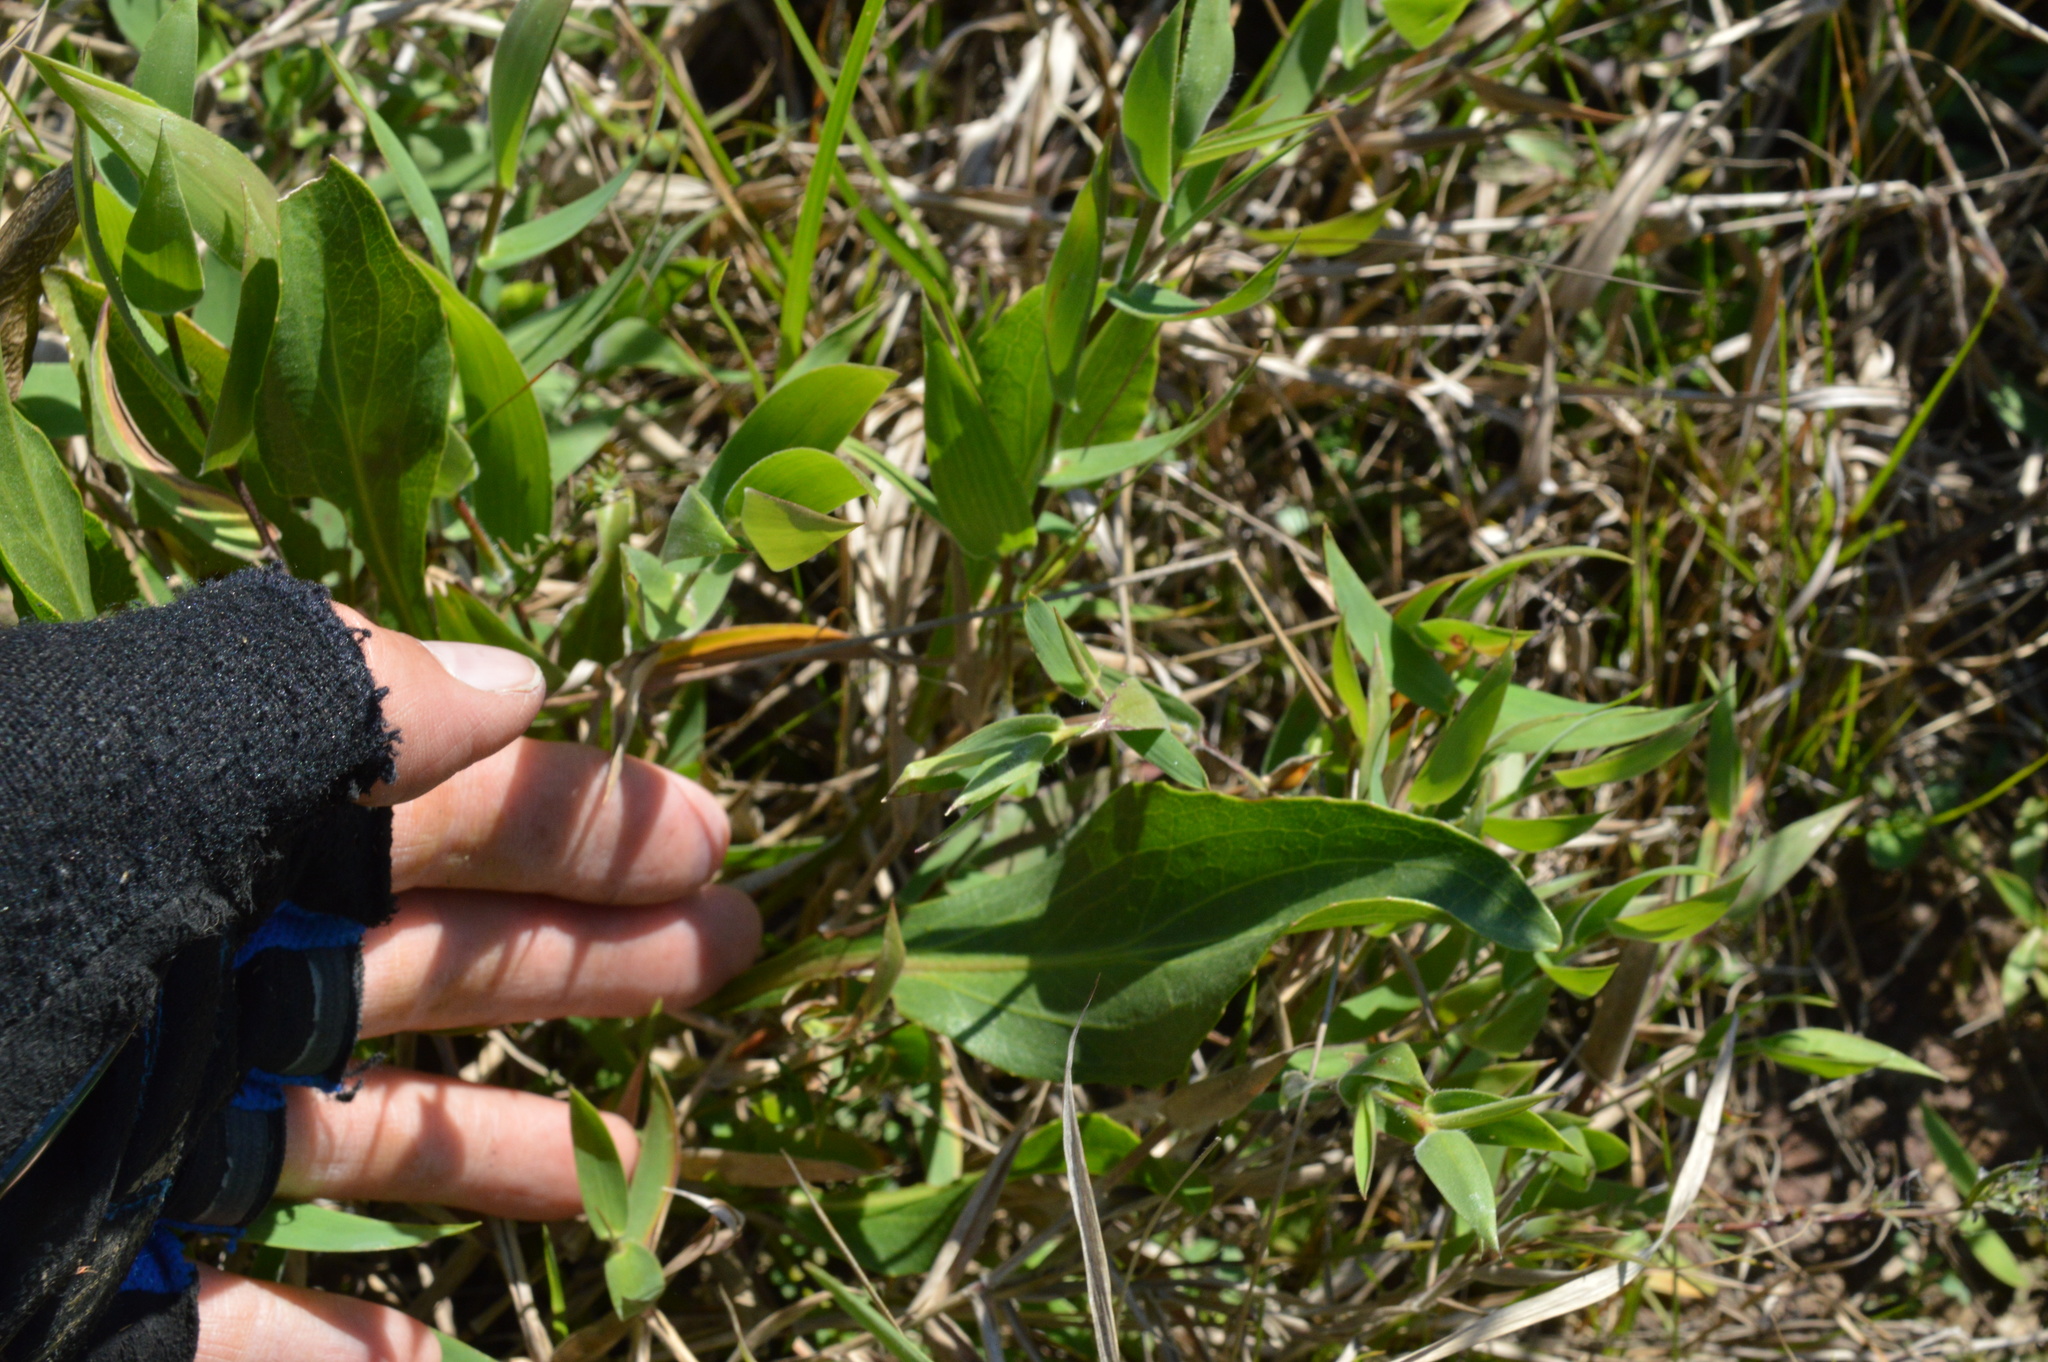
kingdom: Plantae
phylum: Tracheophyta
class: Magnoliopsida
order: Asterales
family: Asteraceae
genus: Rudbeckia
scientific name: Rudbeckia texana
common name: Texas coneflower
